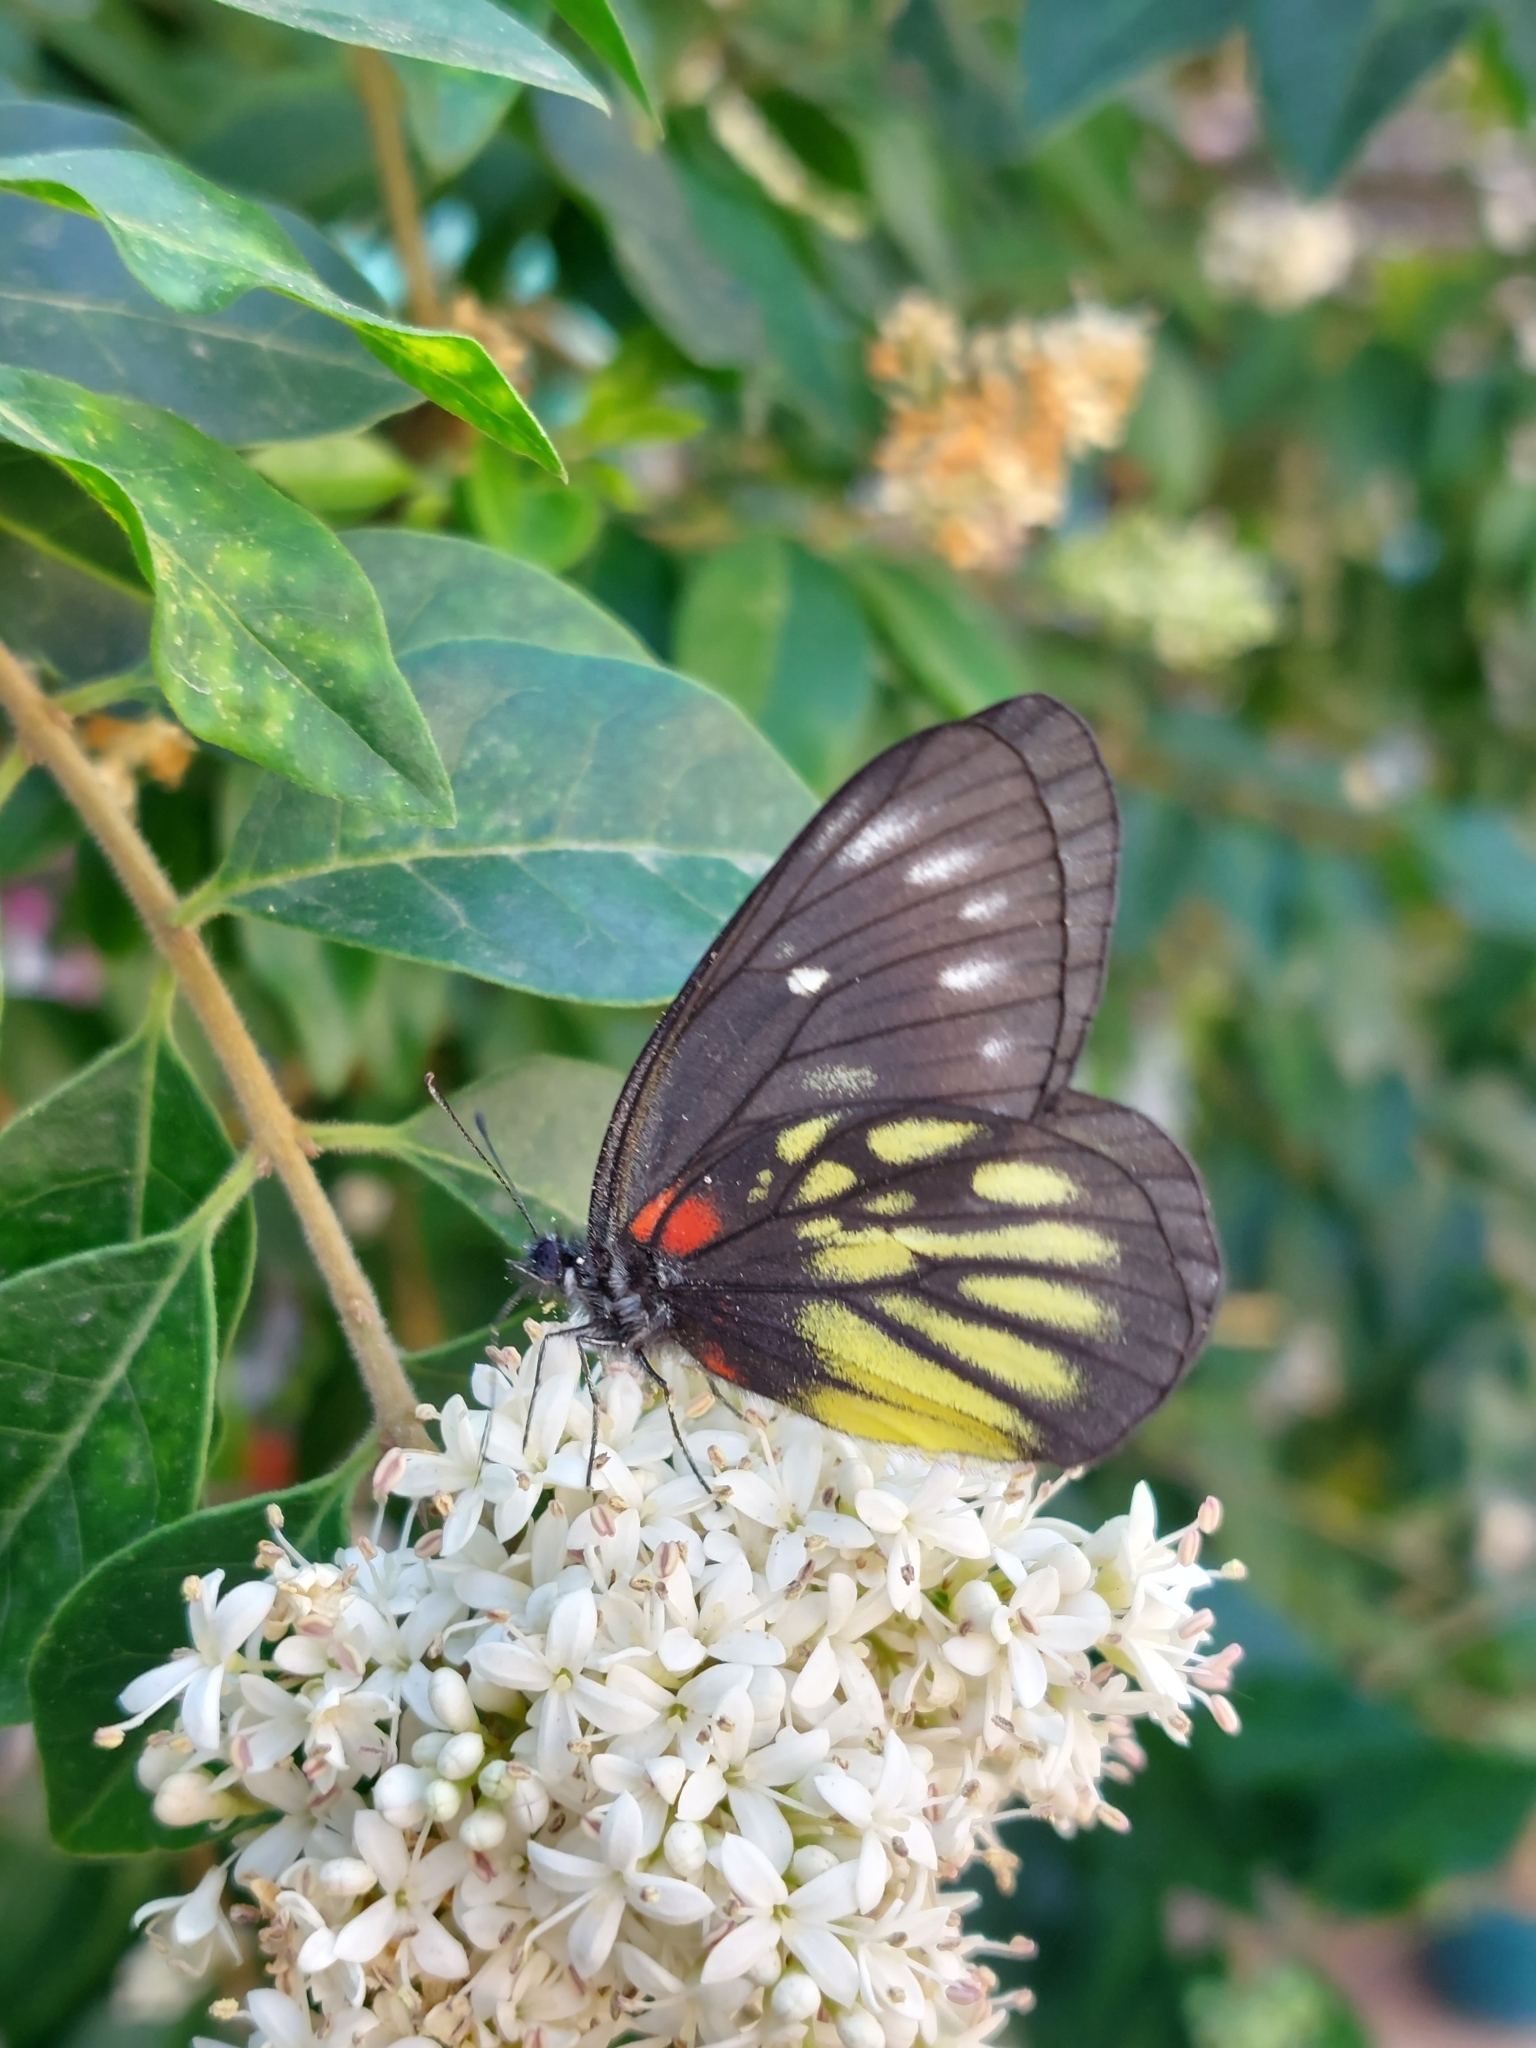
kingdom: Animalia
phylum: Arthropoda
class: Insecta
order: Lepidoptera
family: Pieridae
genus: Delias
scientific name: Delias pasithoe
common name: Red-base jezebel
